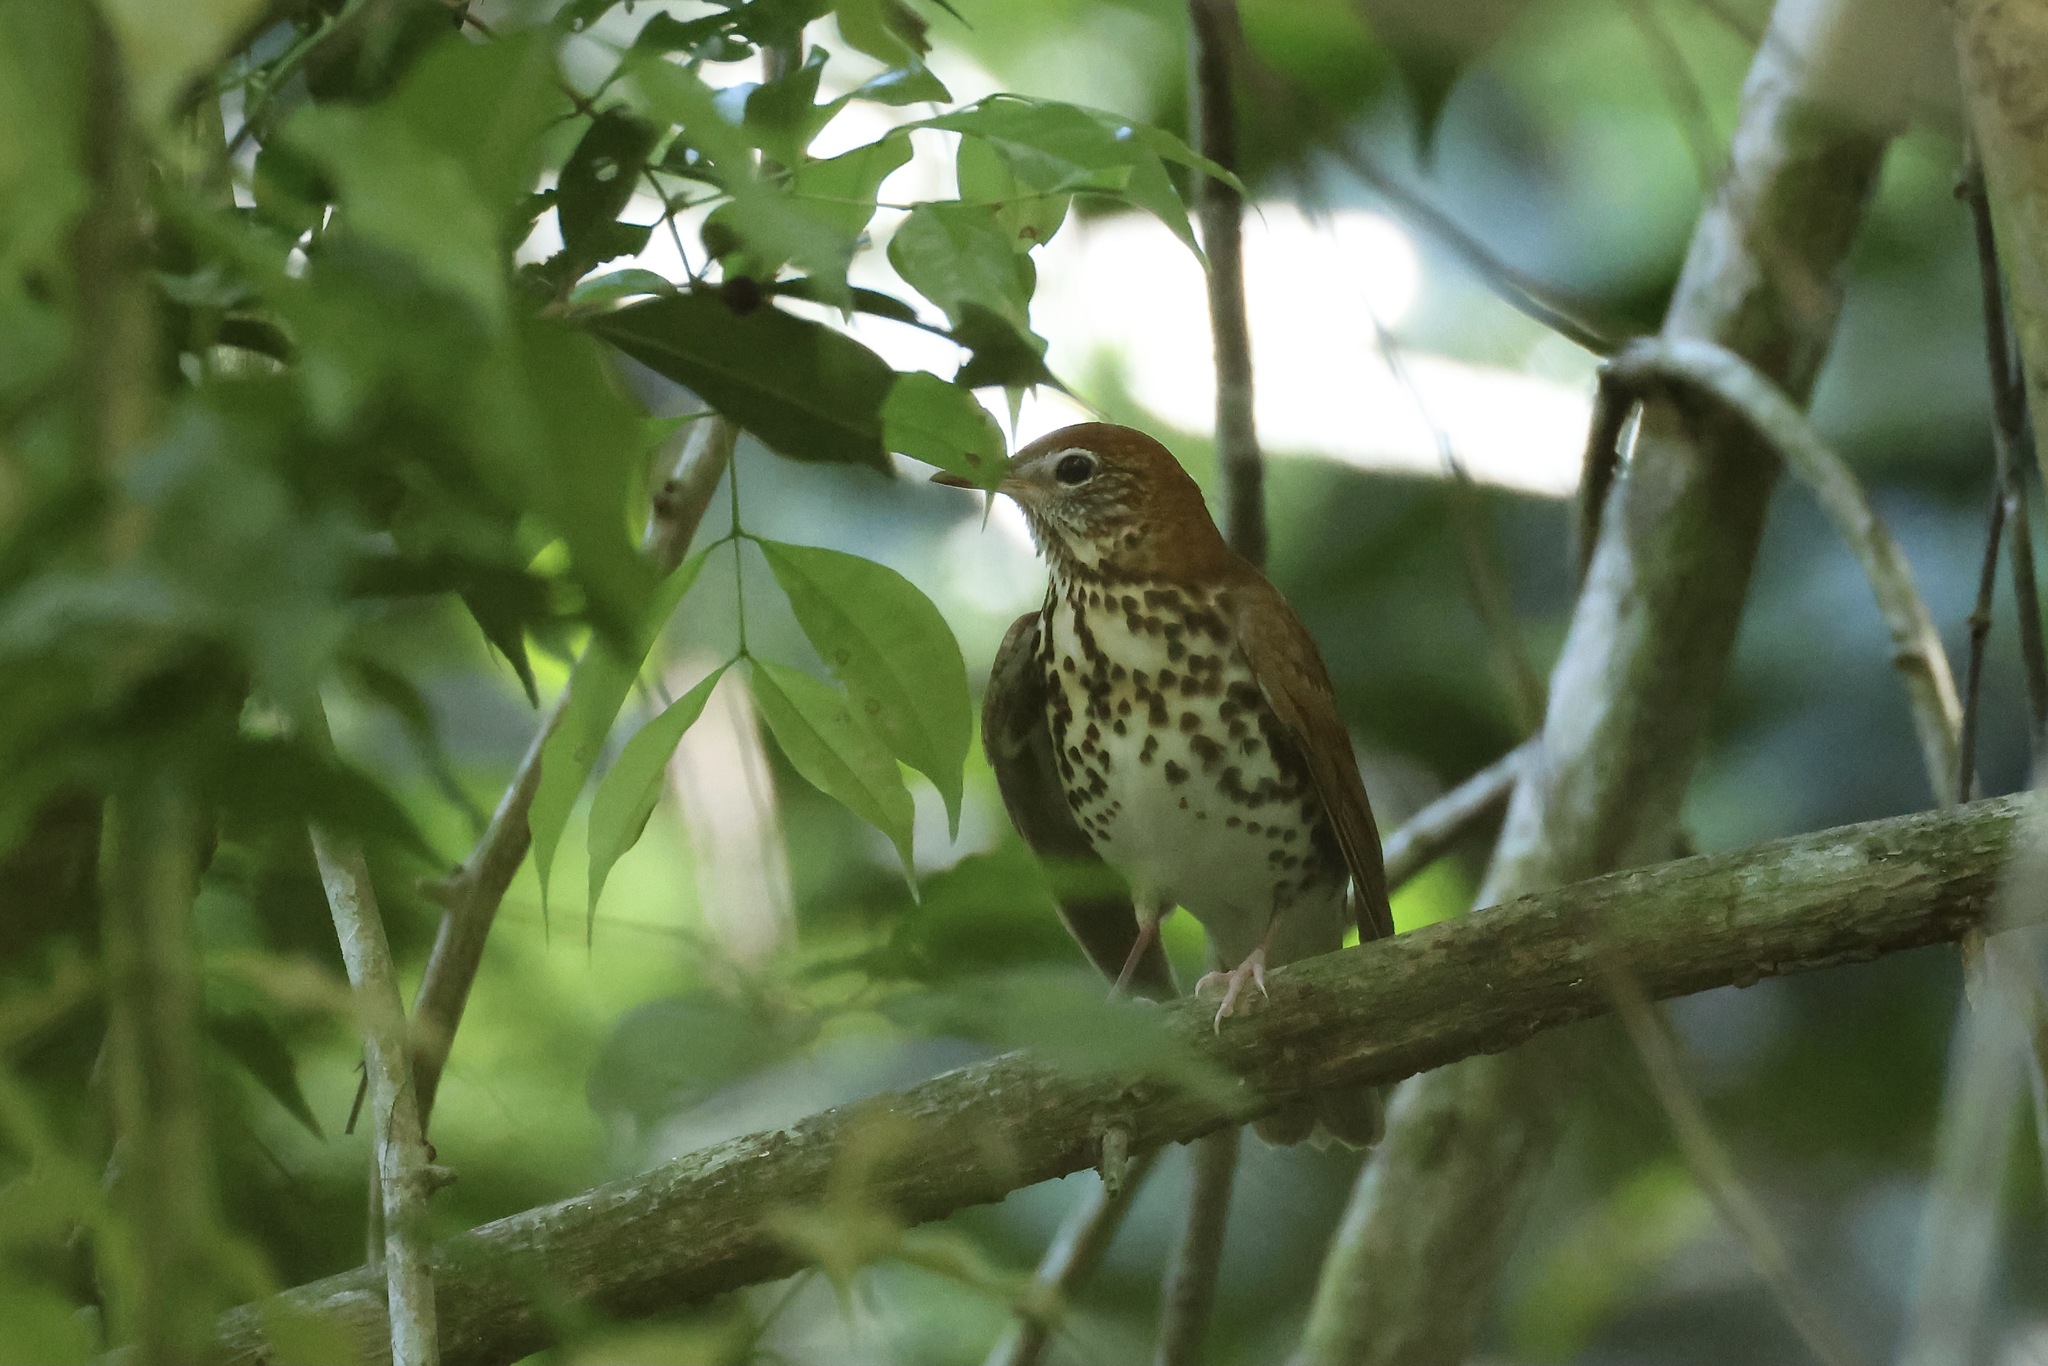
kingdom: Animalia
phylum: Chordata
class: Aves
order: Passeriformes
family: Turdidae
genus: Hylocichla
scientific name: Hylocichla mustelina
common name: Wood thrush
